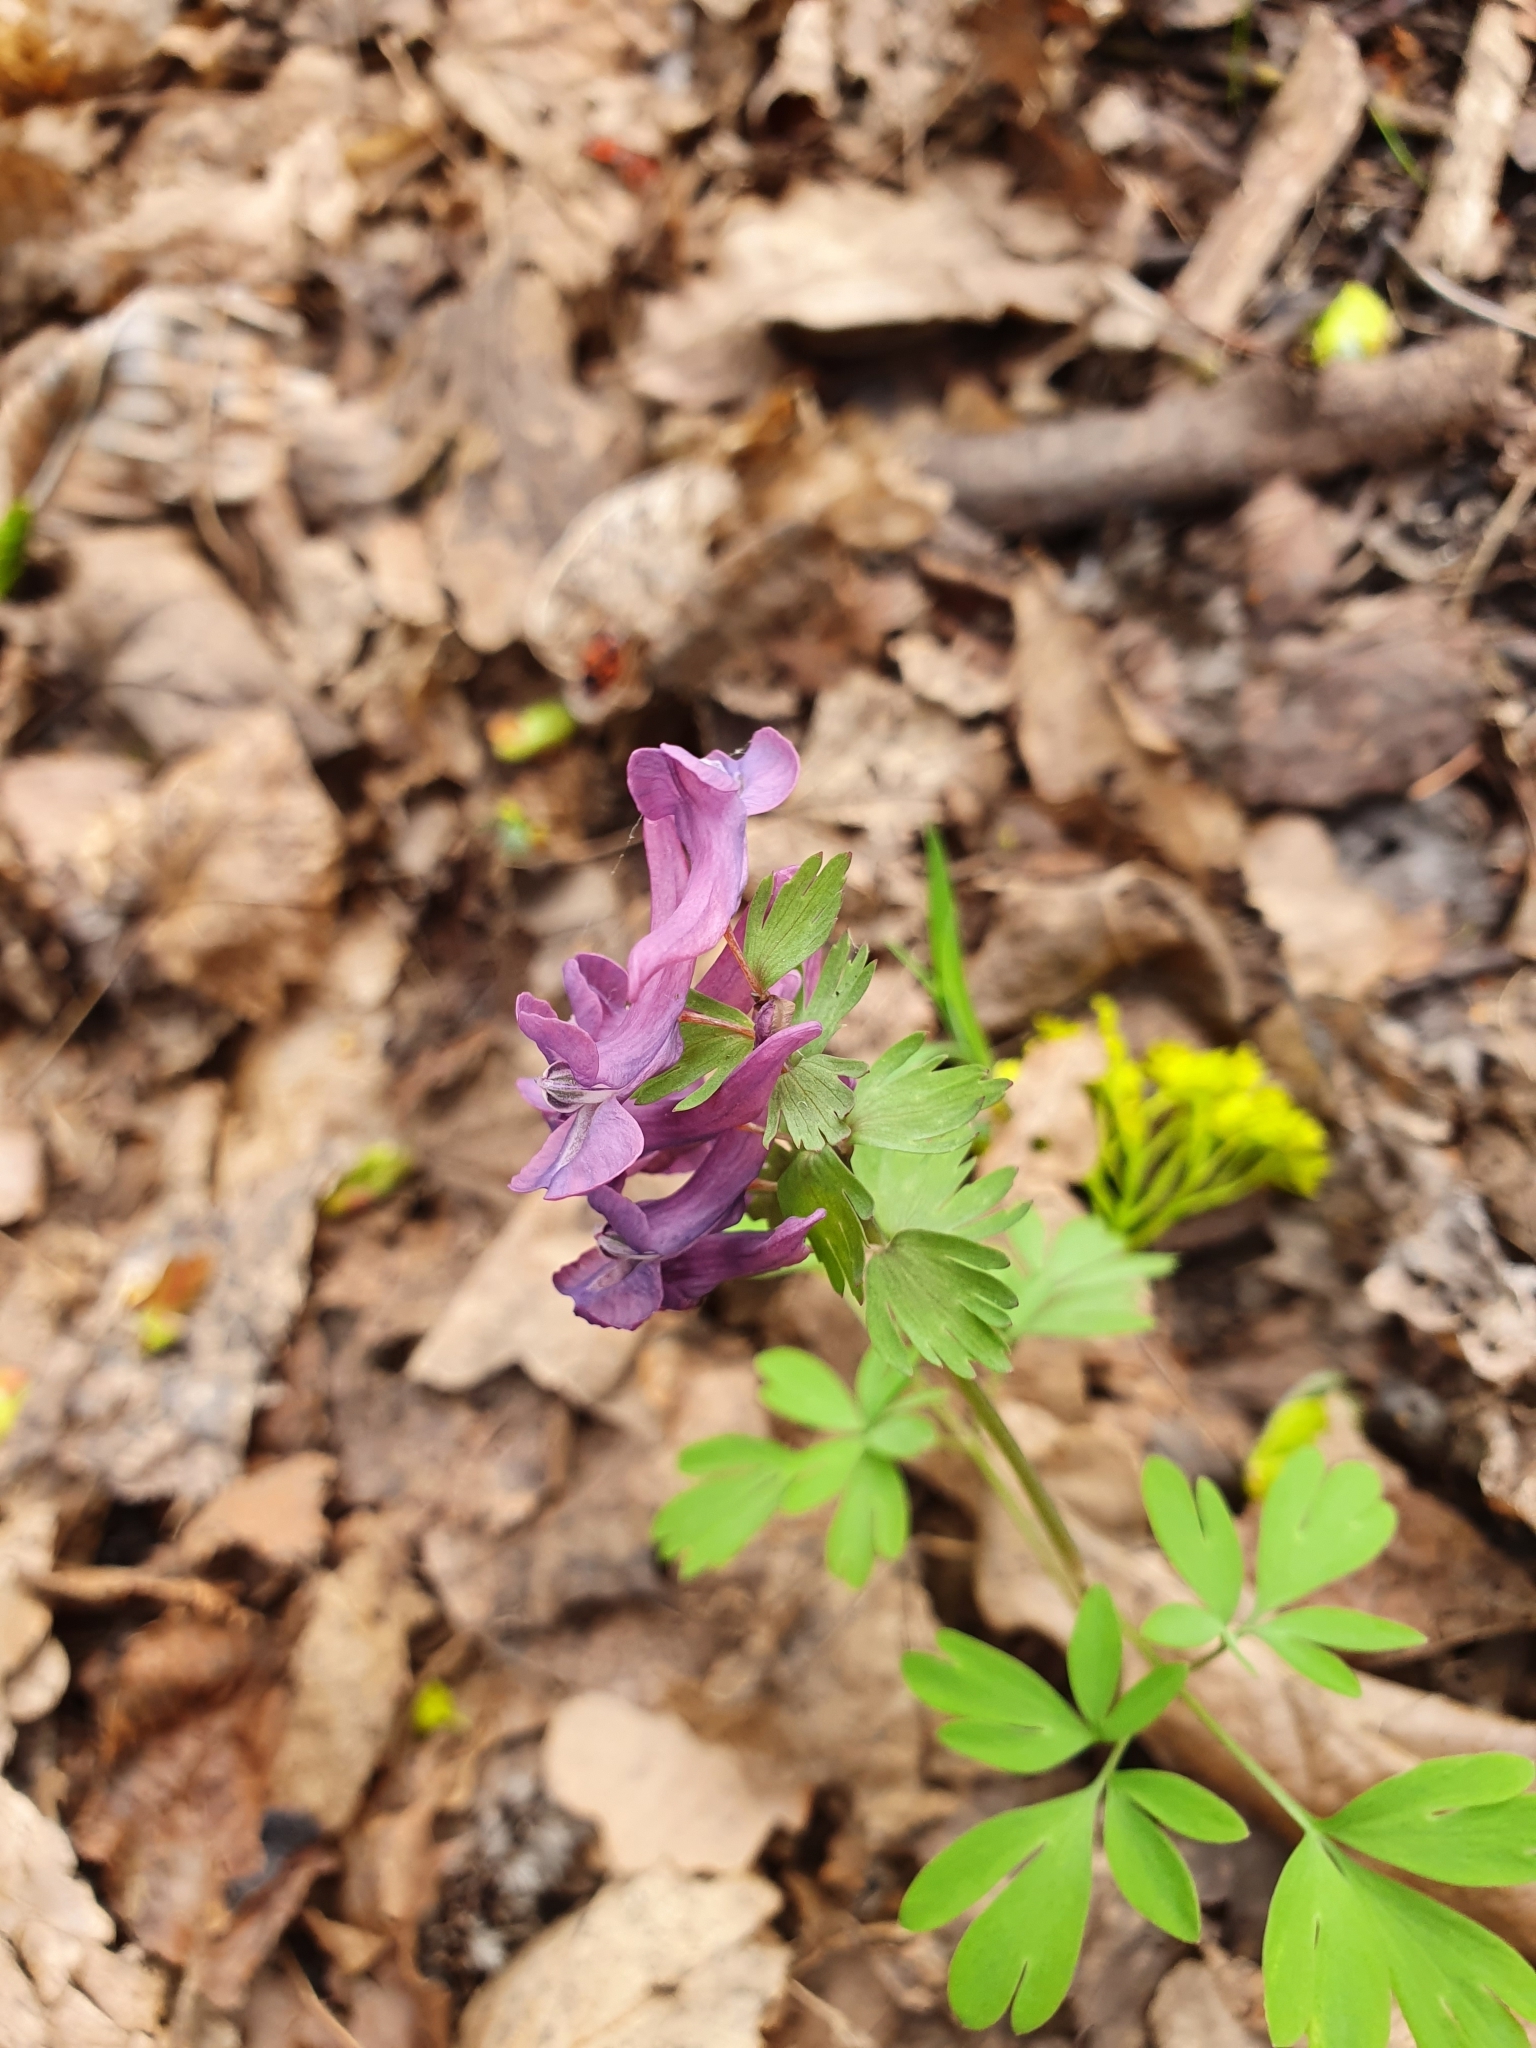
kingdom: Plantae
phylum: Tracheophyta
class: Magnoliopsida
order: Ranunculales
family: Papaveraceae
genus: Corydalis
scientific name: Corydalis solida
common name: Bird-in-a-bush
